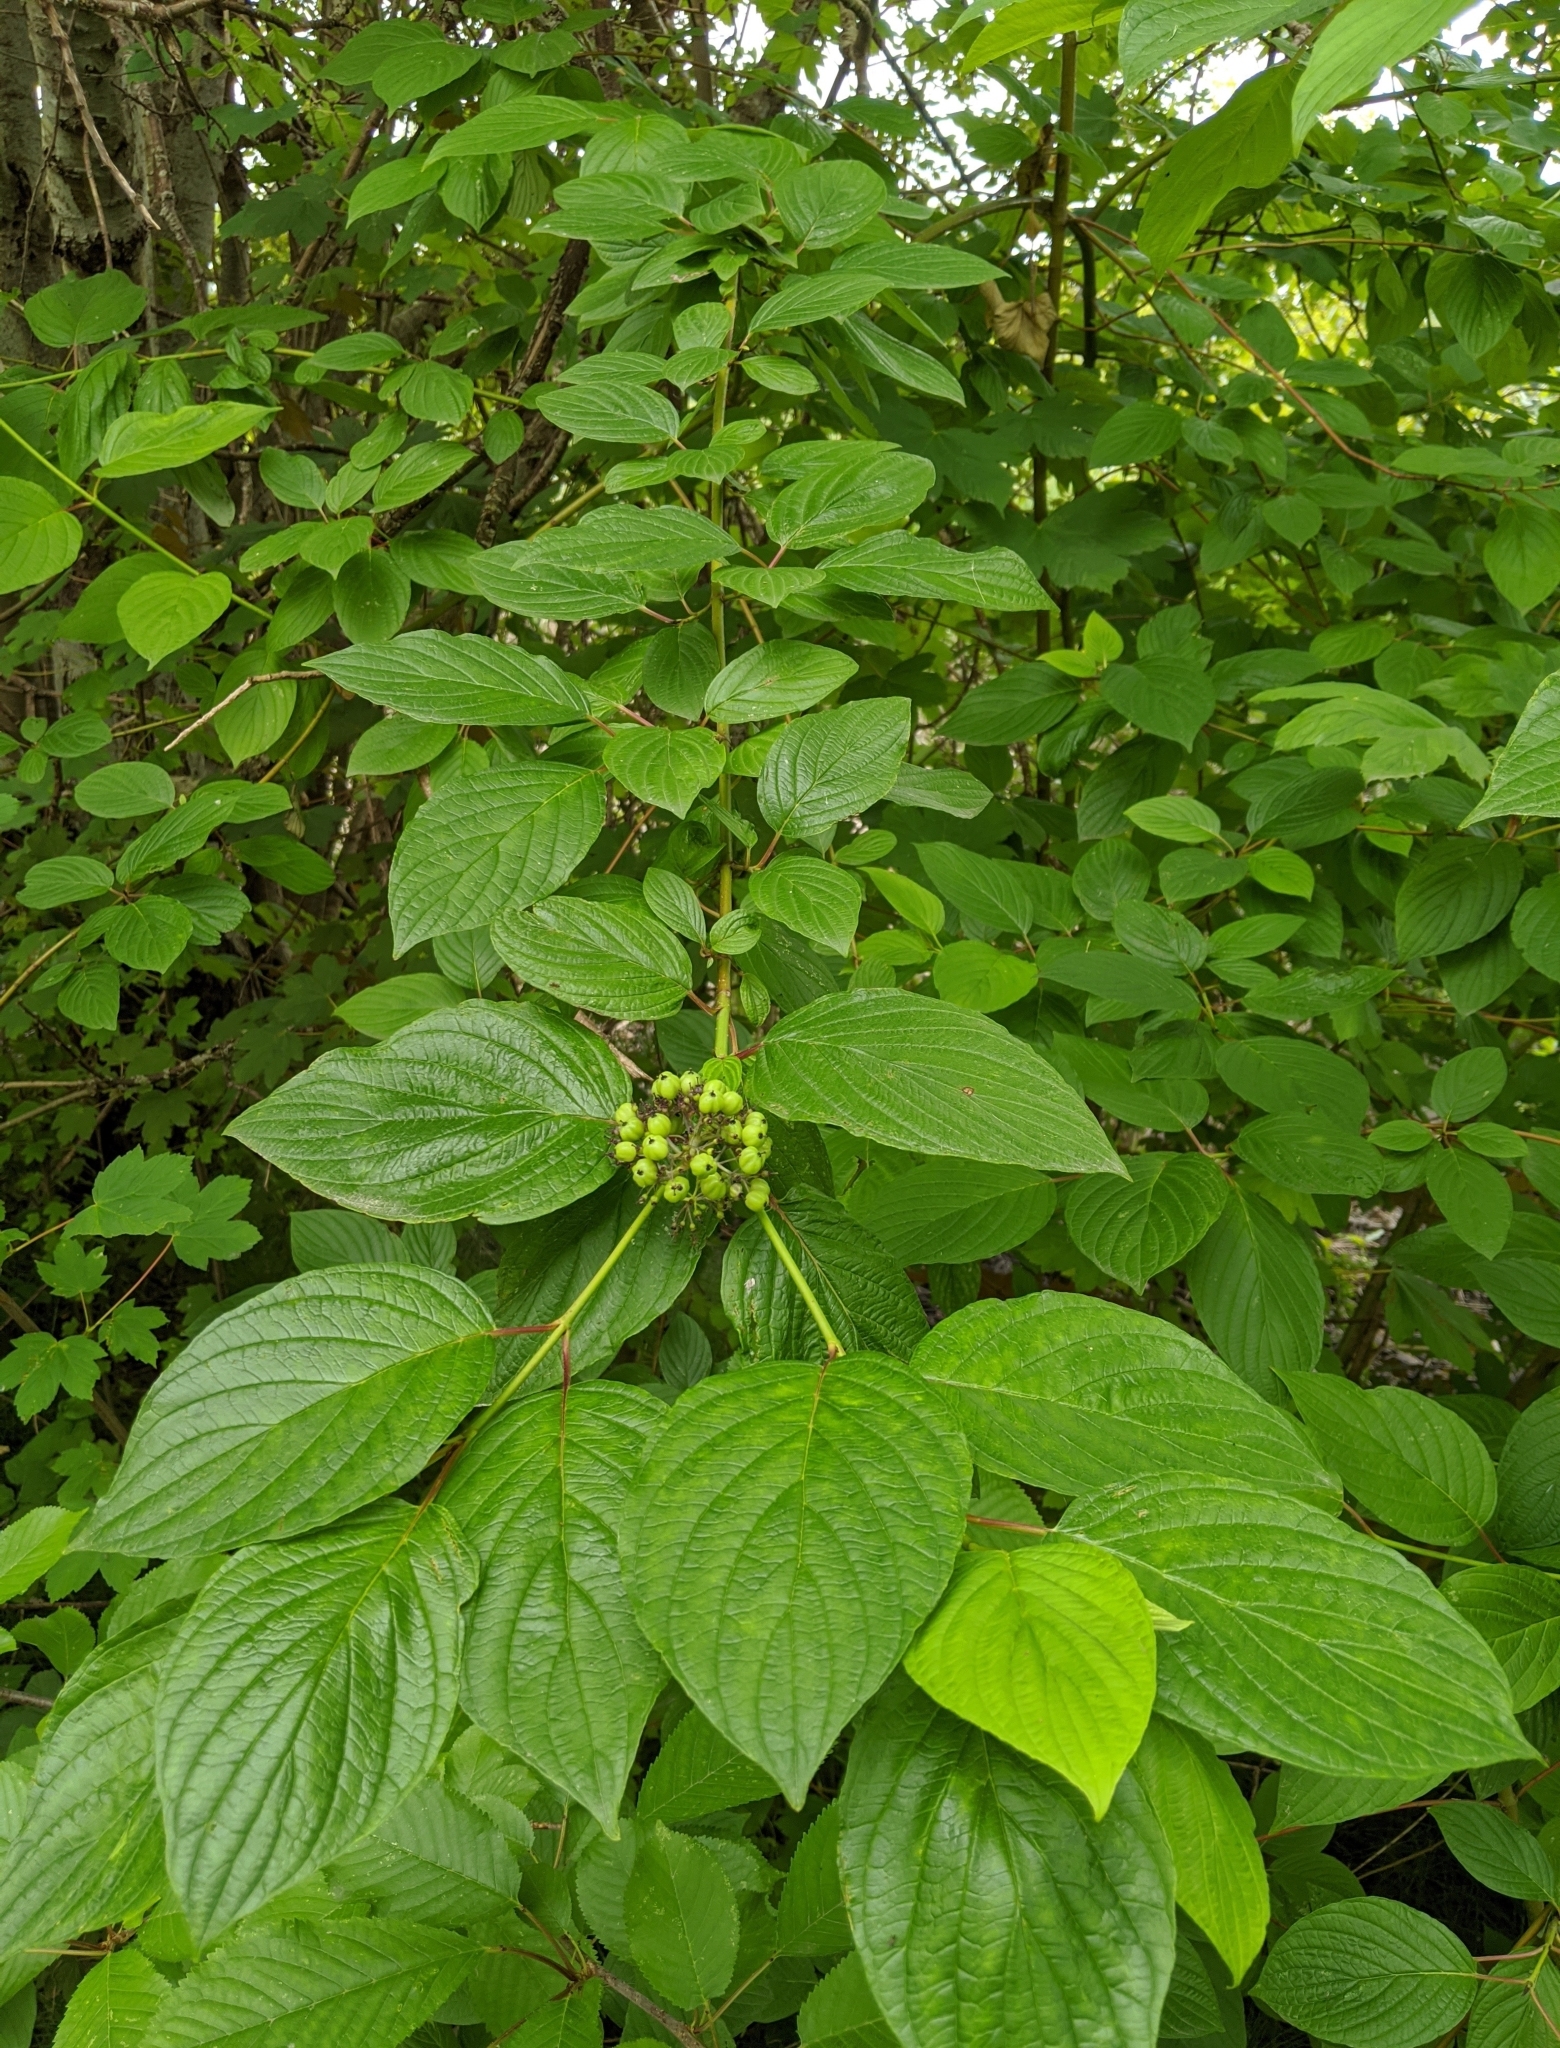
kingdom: Plantae
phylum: Tracheophyta
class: Magnoliopsida
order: Cornales
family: Cornaceae
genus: Cornus
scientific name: Cornus sericea
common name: Red-osier dogwood
